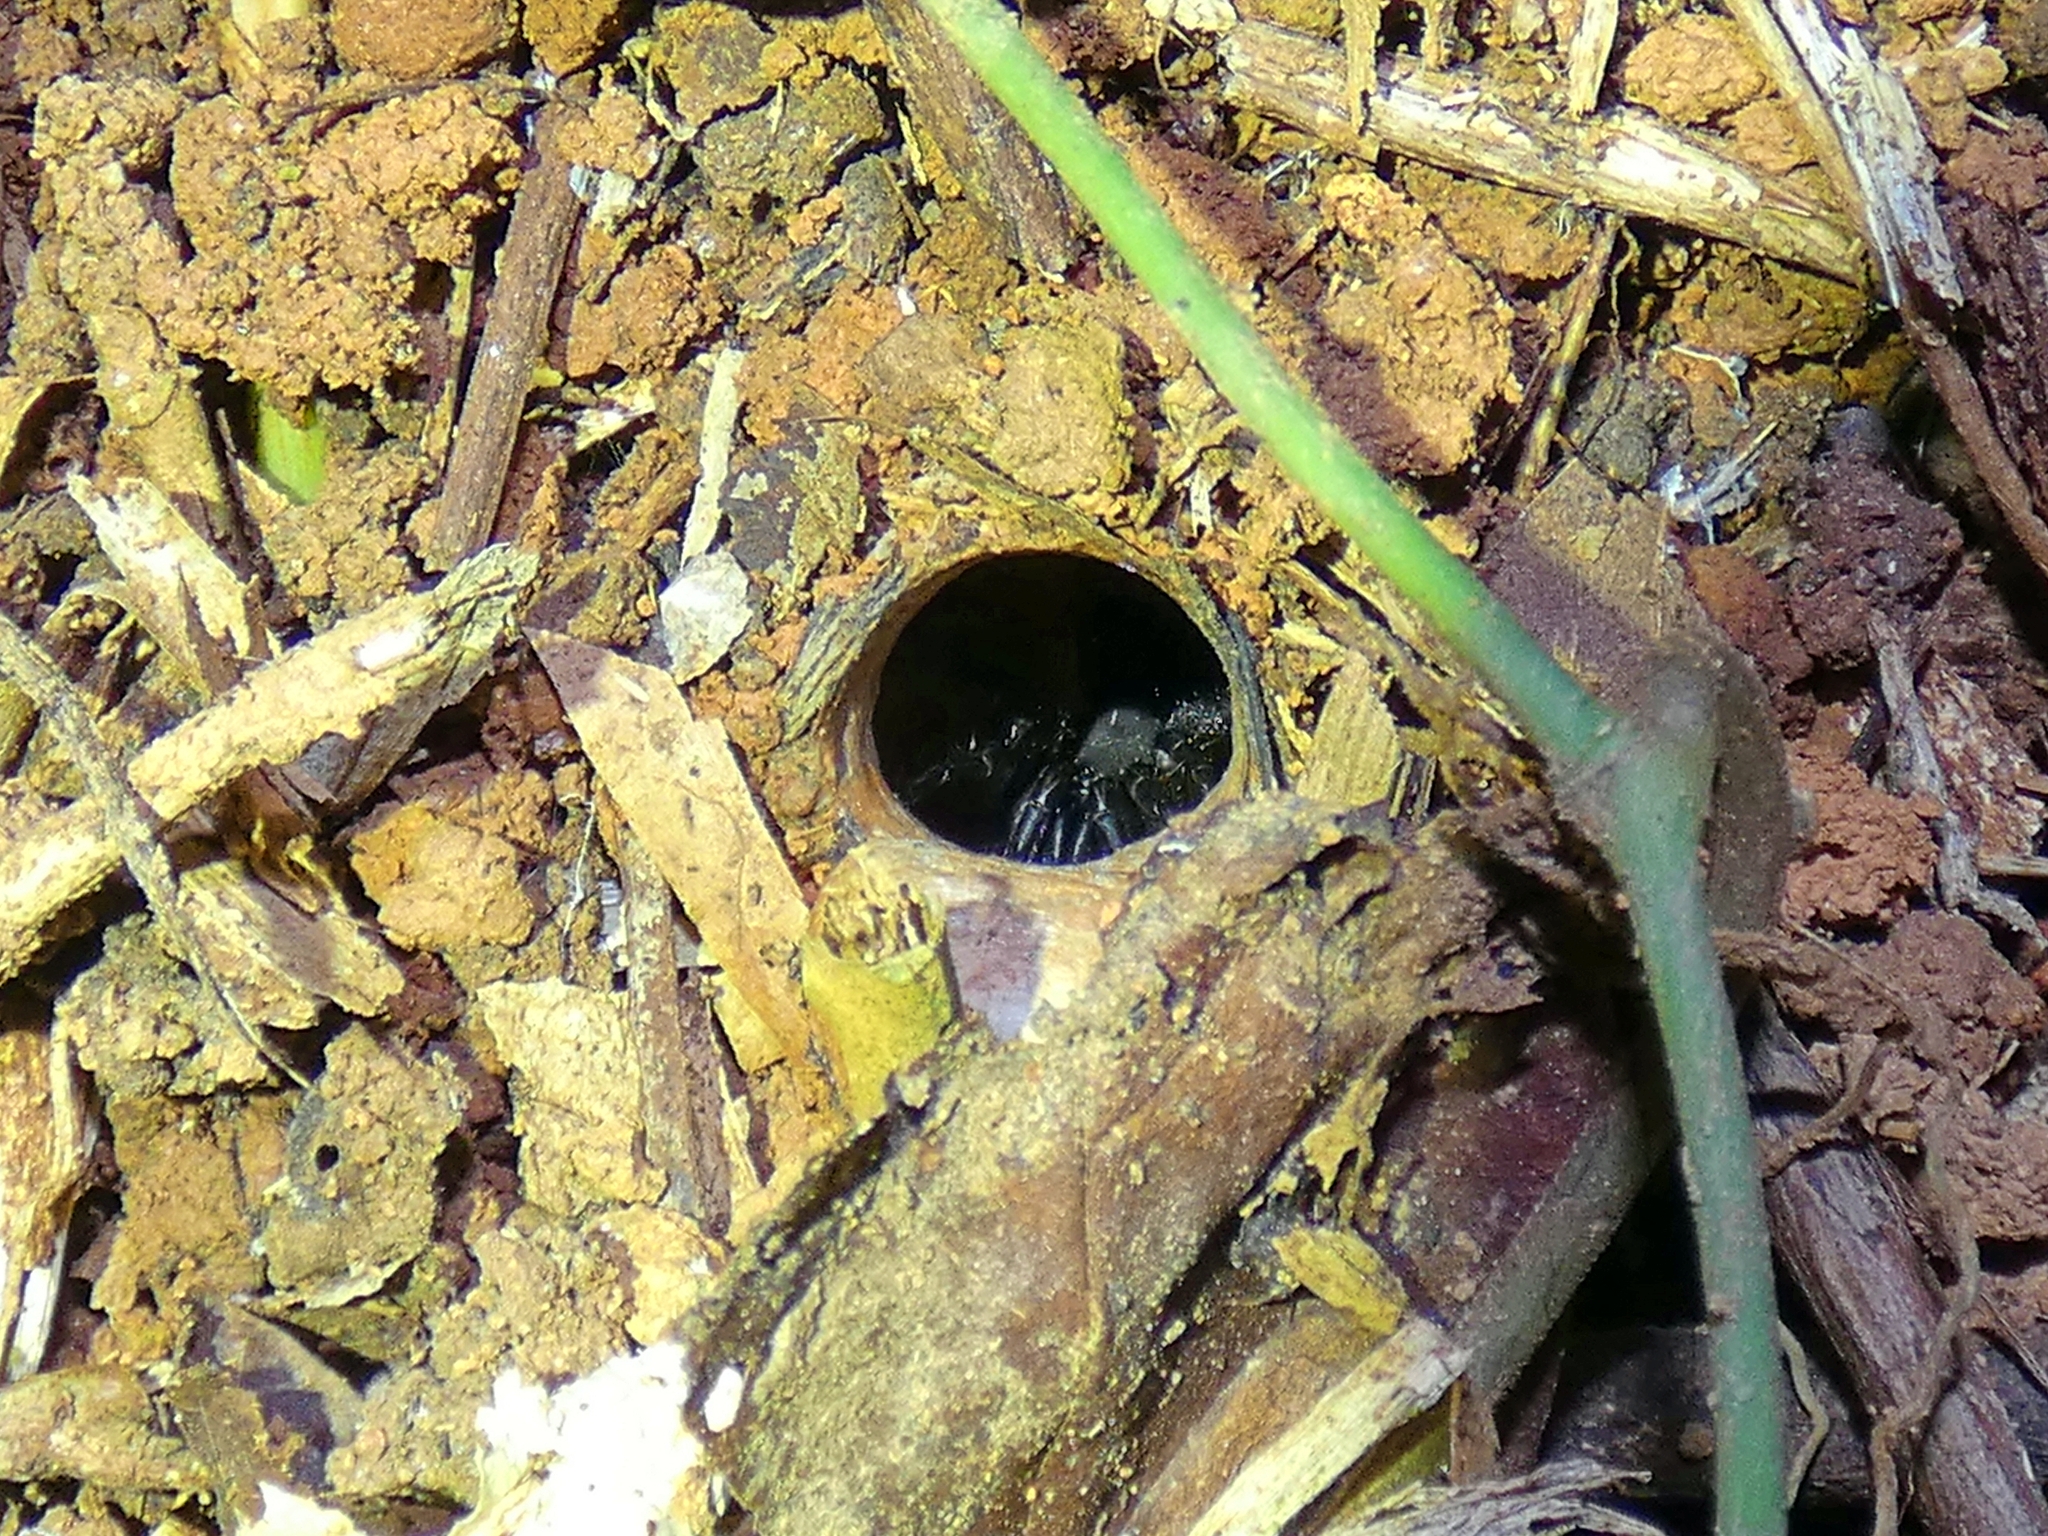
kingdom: Animalia
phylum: Arthropoda
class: Arachnida
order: Araneae
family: Barychelidae
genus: Trittame
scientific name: Trittame loki
